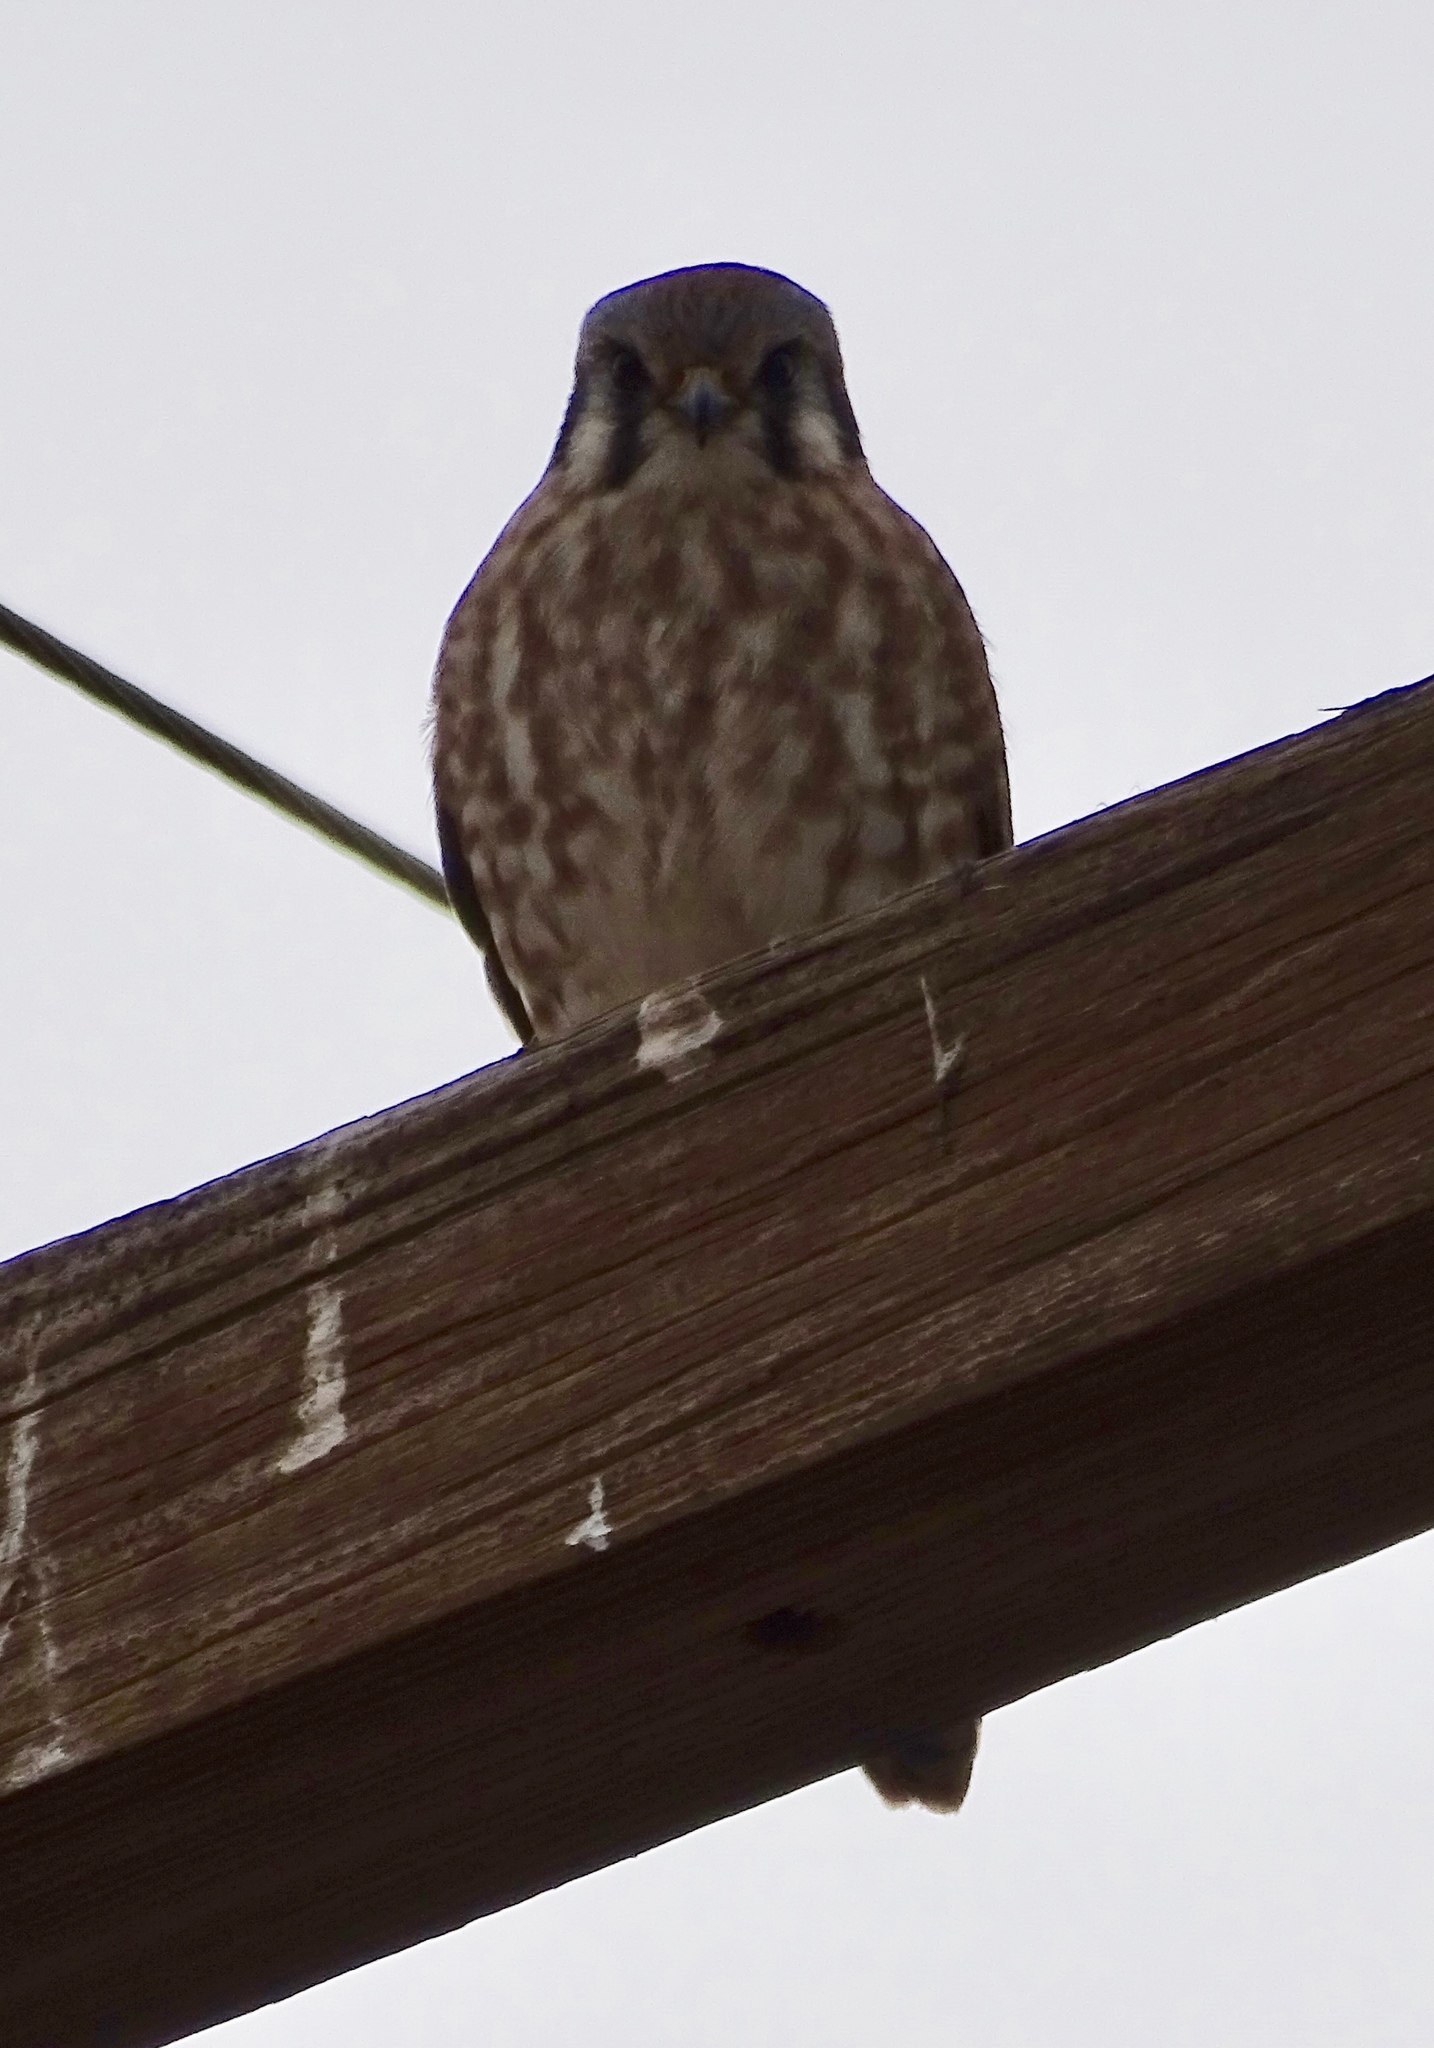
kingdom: Animalia
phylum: Chordata
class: Aves
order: Falconiformes
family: Falconidae
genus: Falco
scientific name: Falco sparverius
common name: American kestrel
